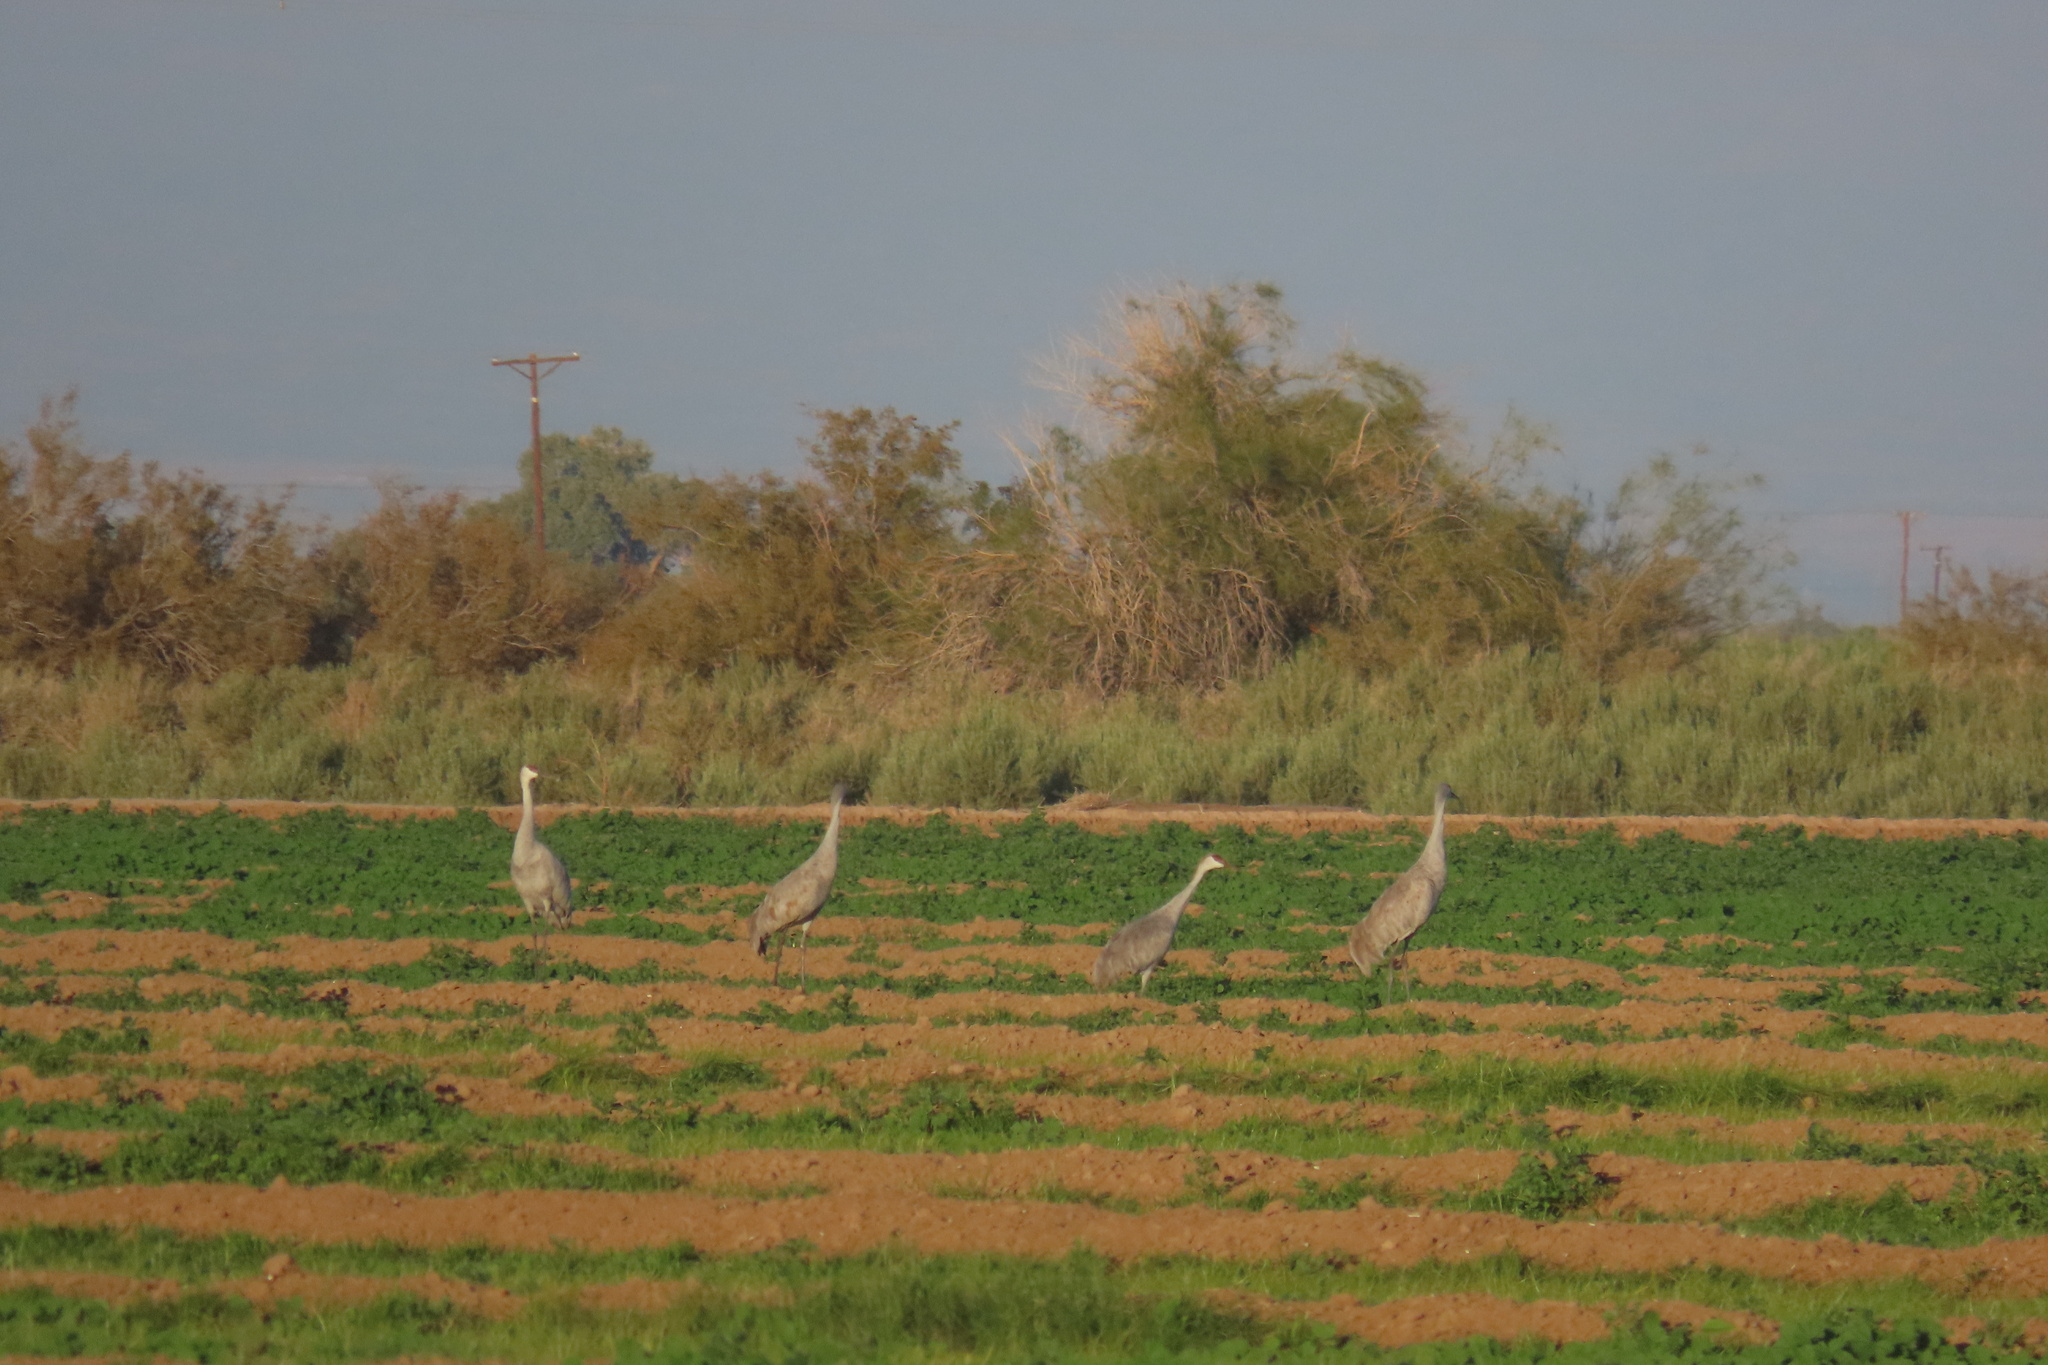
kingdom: Animalia
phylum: Chordata
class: Aves
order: Gruiformes
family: Gruidae
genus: Grus
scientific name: Grus canadensis
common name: Sandhill crane
